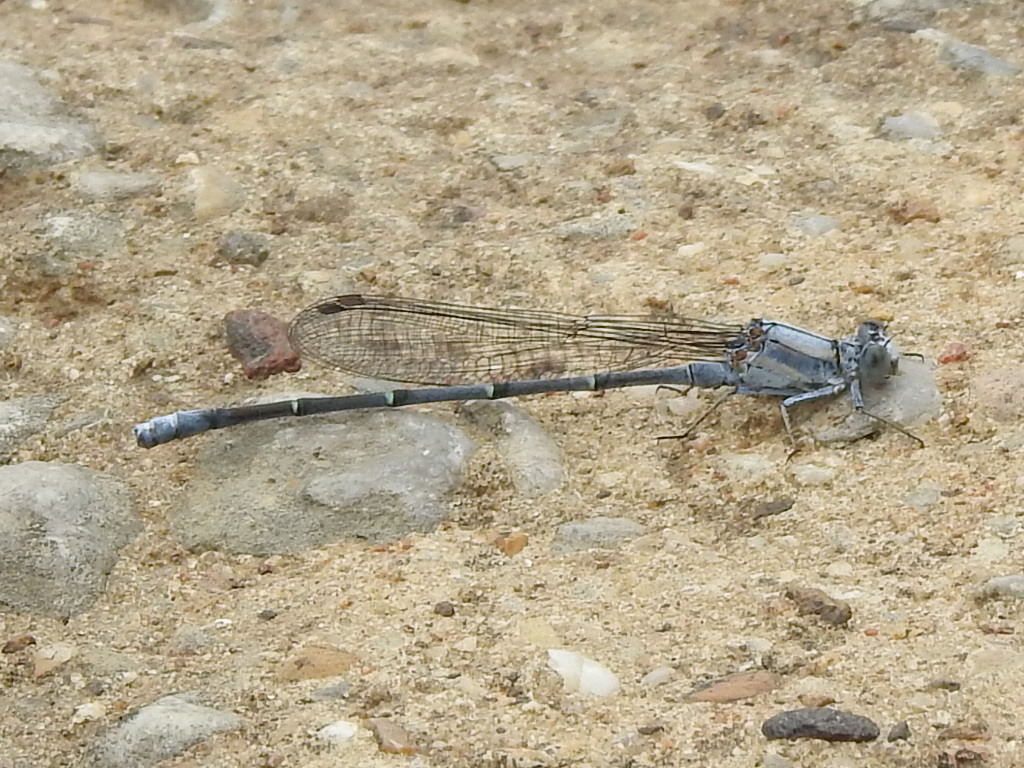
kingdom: Animalia
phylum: Arthropoda
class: Insecta
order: Odonata
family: Coenagrionidae
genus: Argia
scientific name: Argia moesta
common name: Powdered dancer
